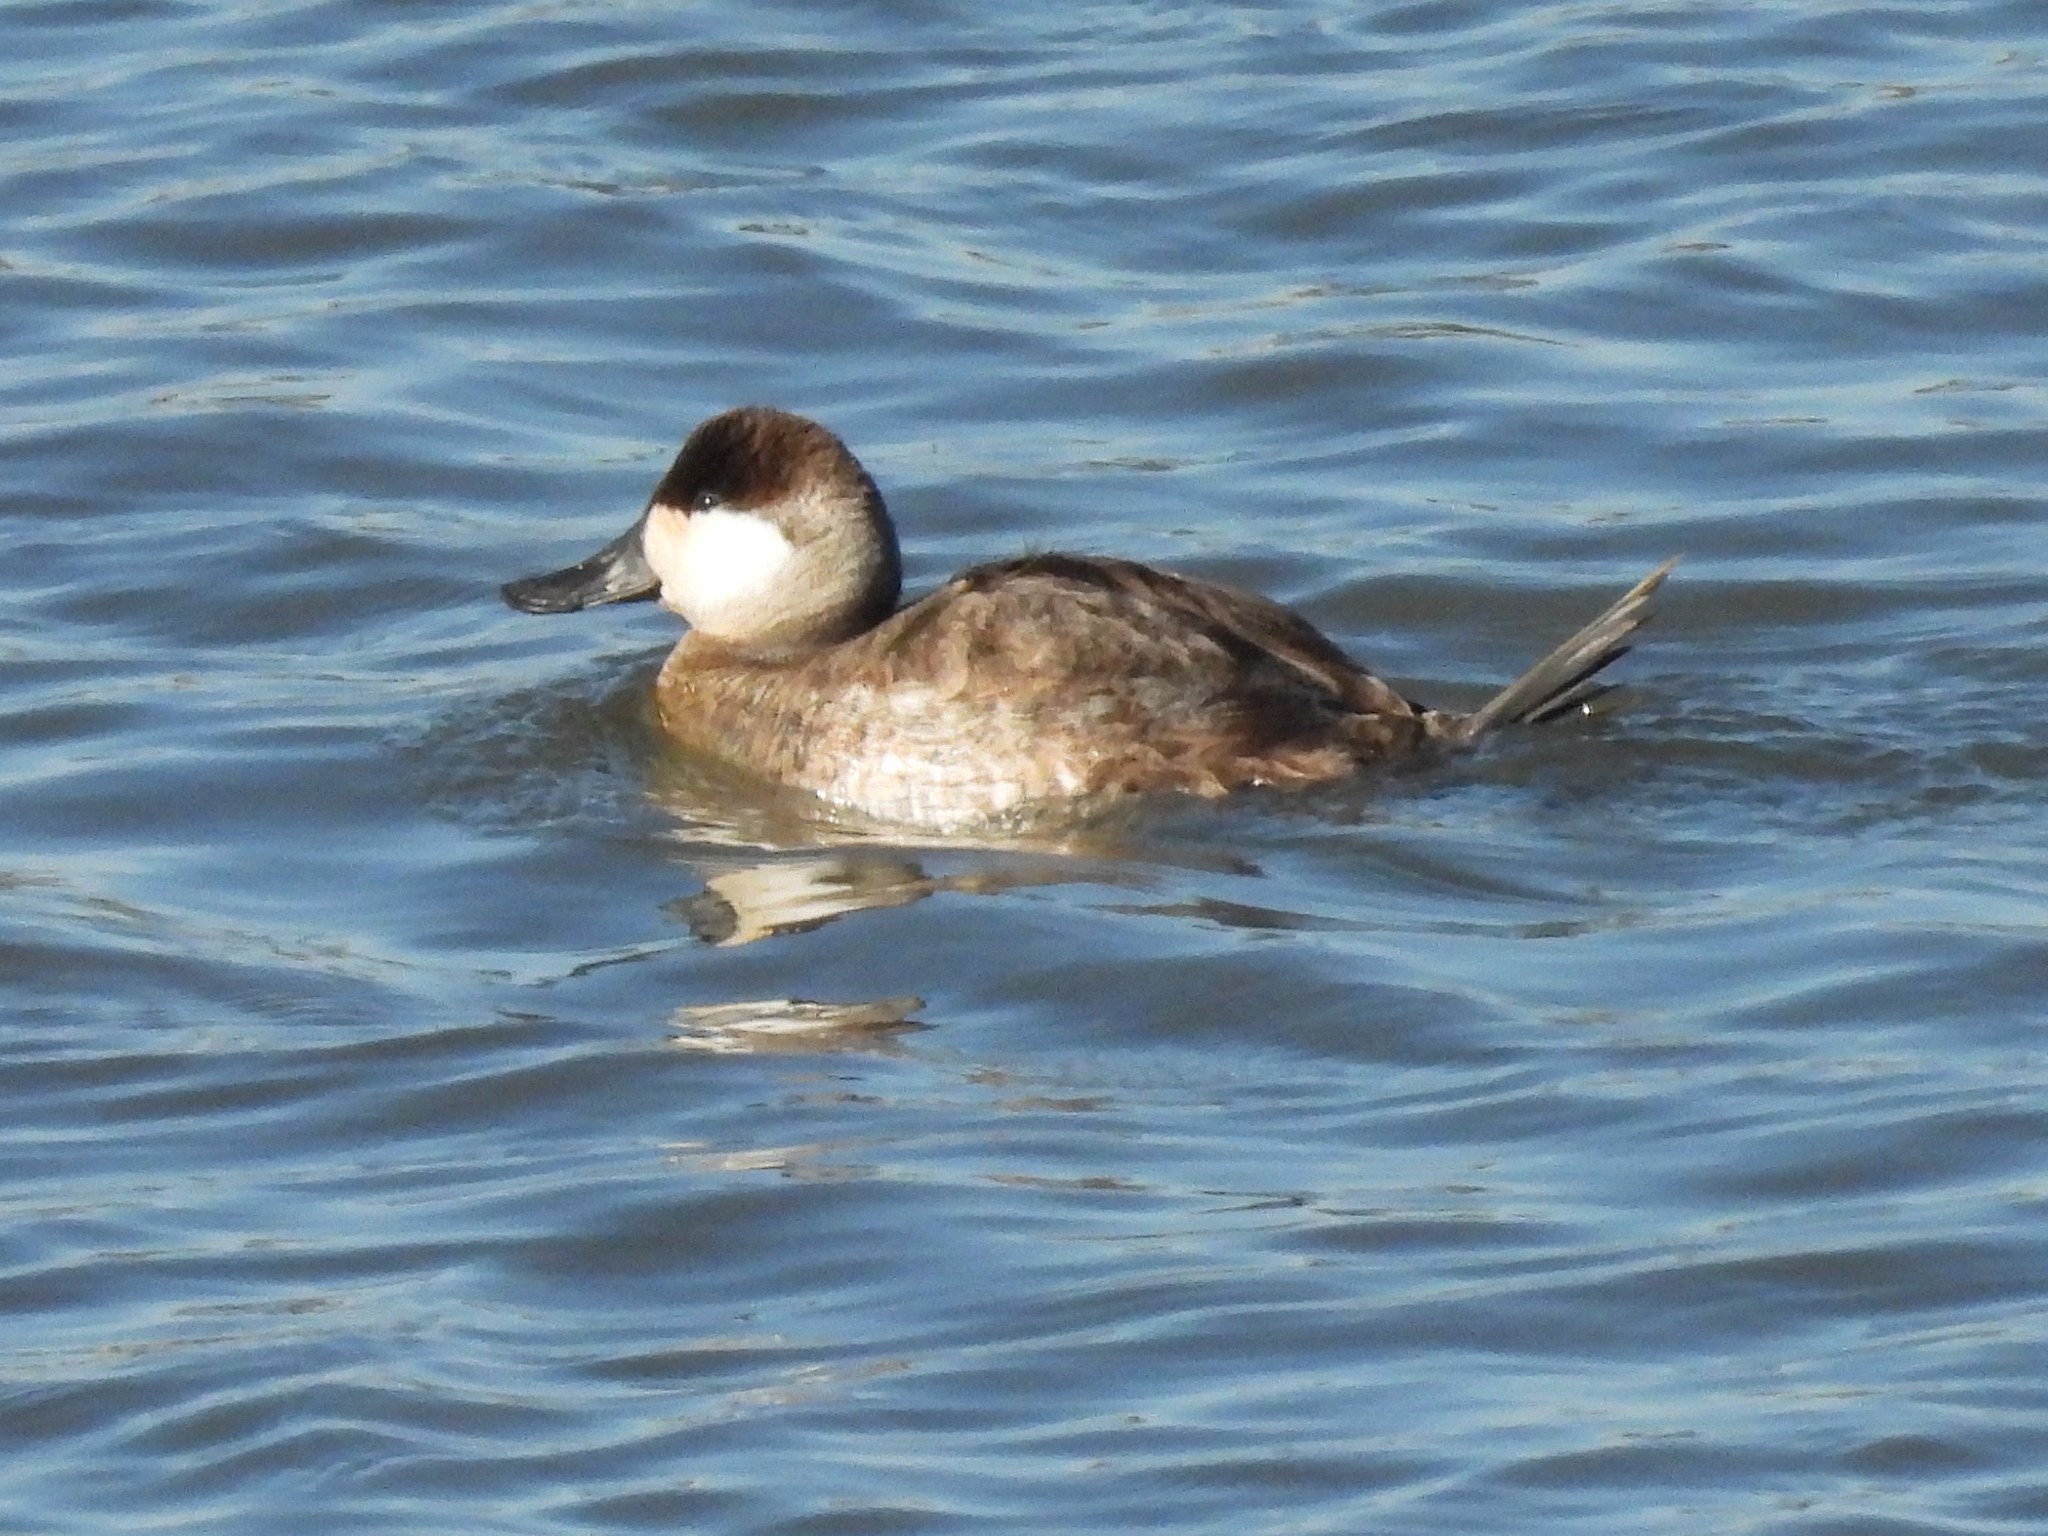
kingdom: Animalia
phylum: Chordata
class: Aves
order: Anseriformes
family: Anatidae
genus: Oxyura
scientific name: Oxyura jamaicensis
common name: Ruddy duck
